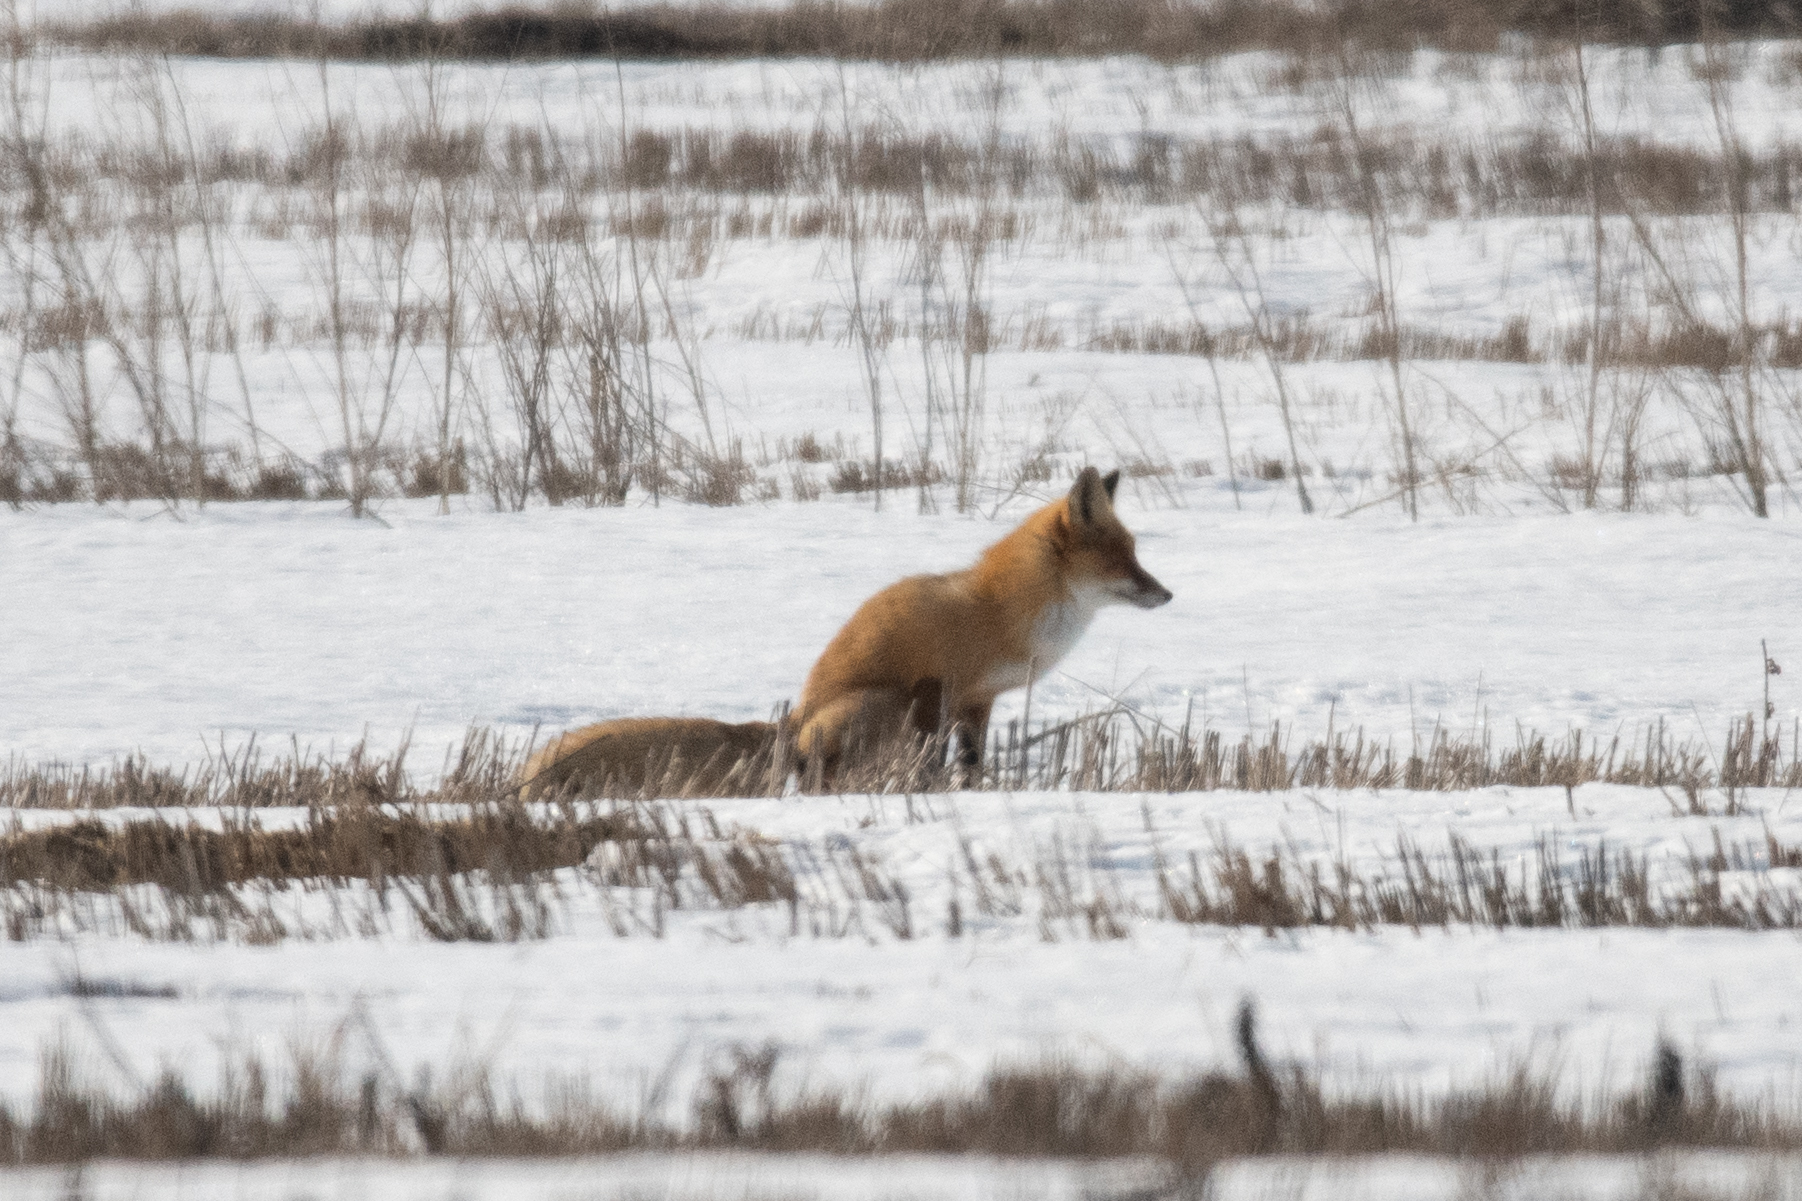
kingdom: Animalia
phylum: Chordata
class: Mammalia
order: Carnivora
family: Canidae
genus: Vulpes
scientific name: Vulpes vulpes
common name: Red fox
